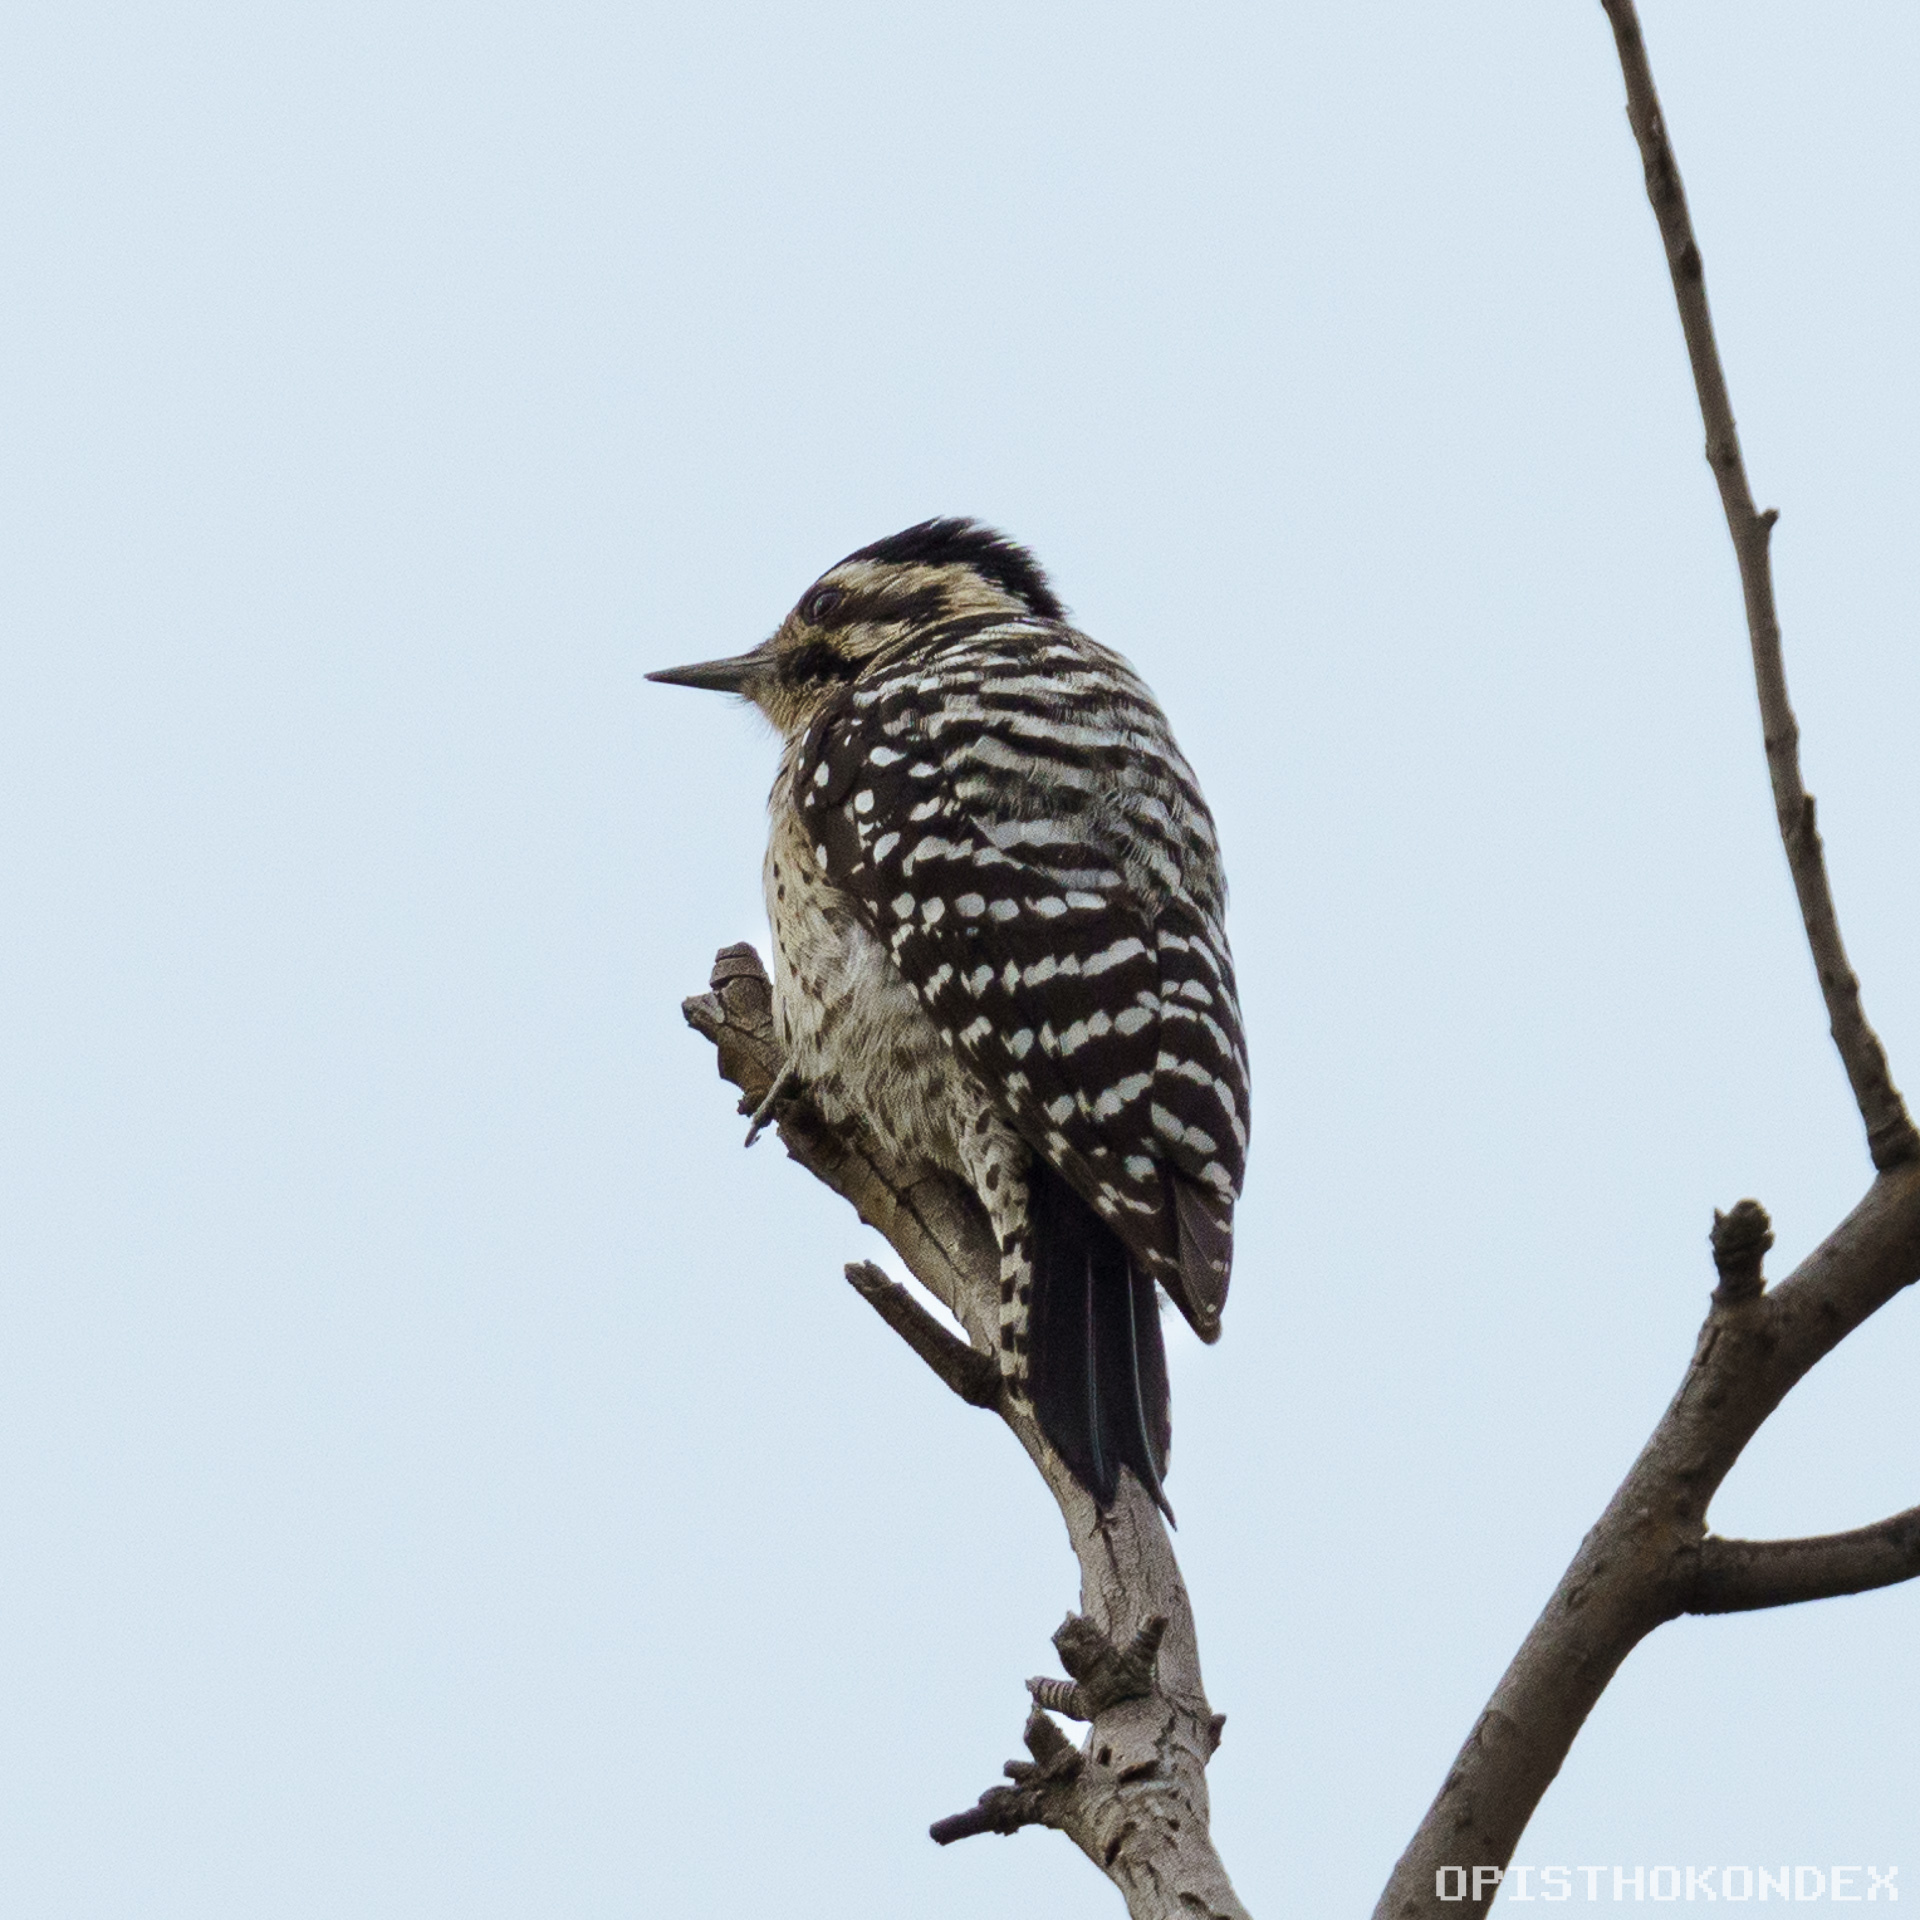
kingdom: Animalia
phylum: Chordata
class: Aves
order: Piciformes
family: Picidae
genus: Dryobates
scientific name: Dryobates scalaris
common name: Ladder-backed woodpecker
